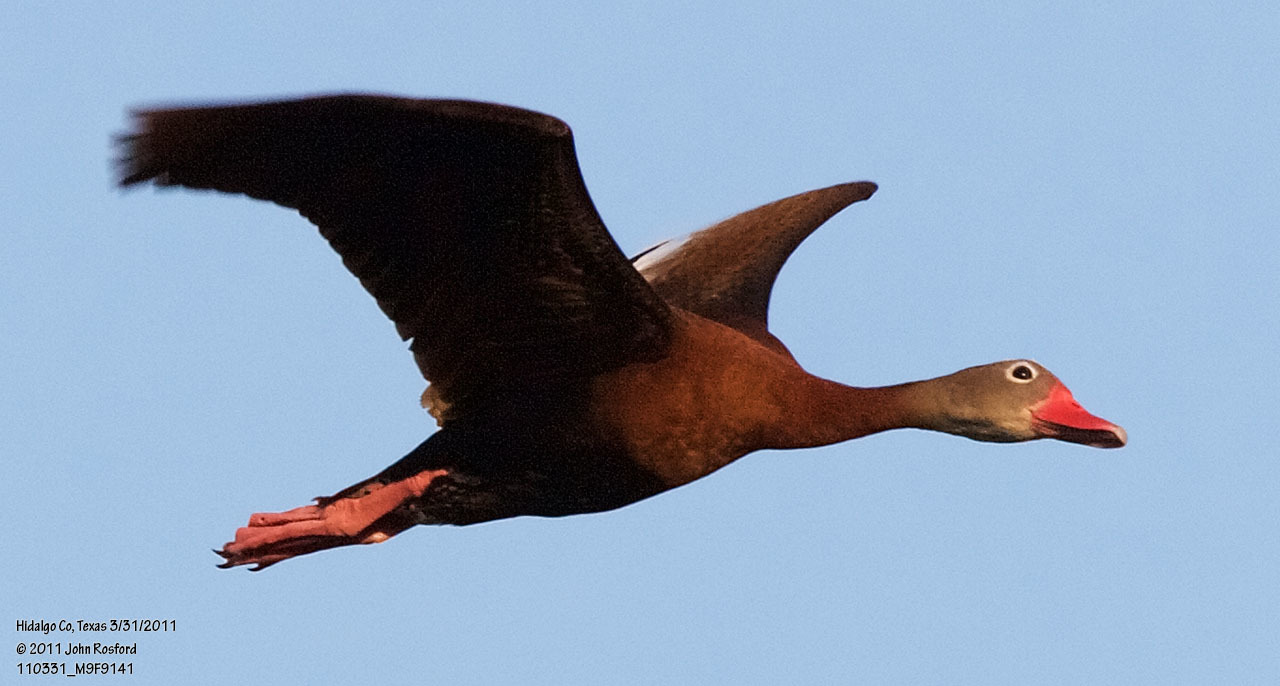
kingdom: Animalia
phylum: Chordata
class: Aves
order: Anseriformes
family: Anatidae
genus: Dendrocygna
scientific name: Dendrocygna autumnalis
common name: Black-bellied whistling duck
